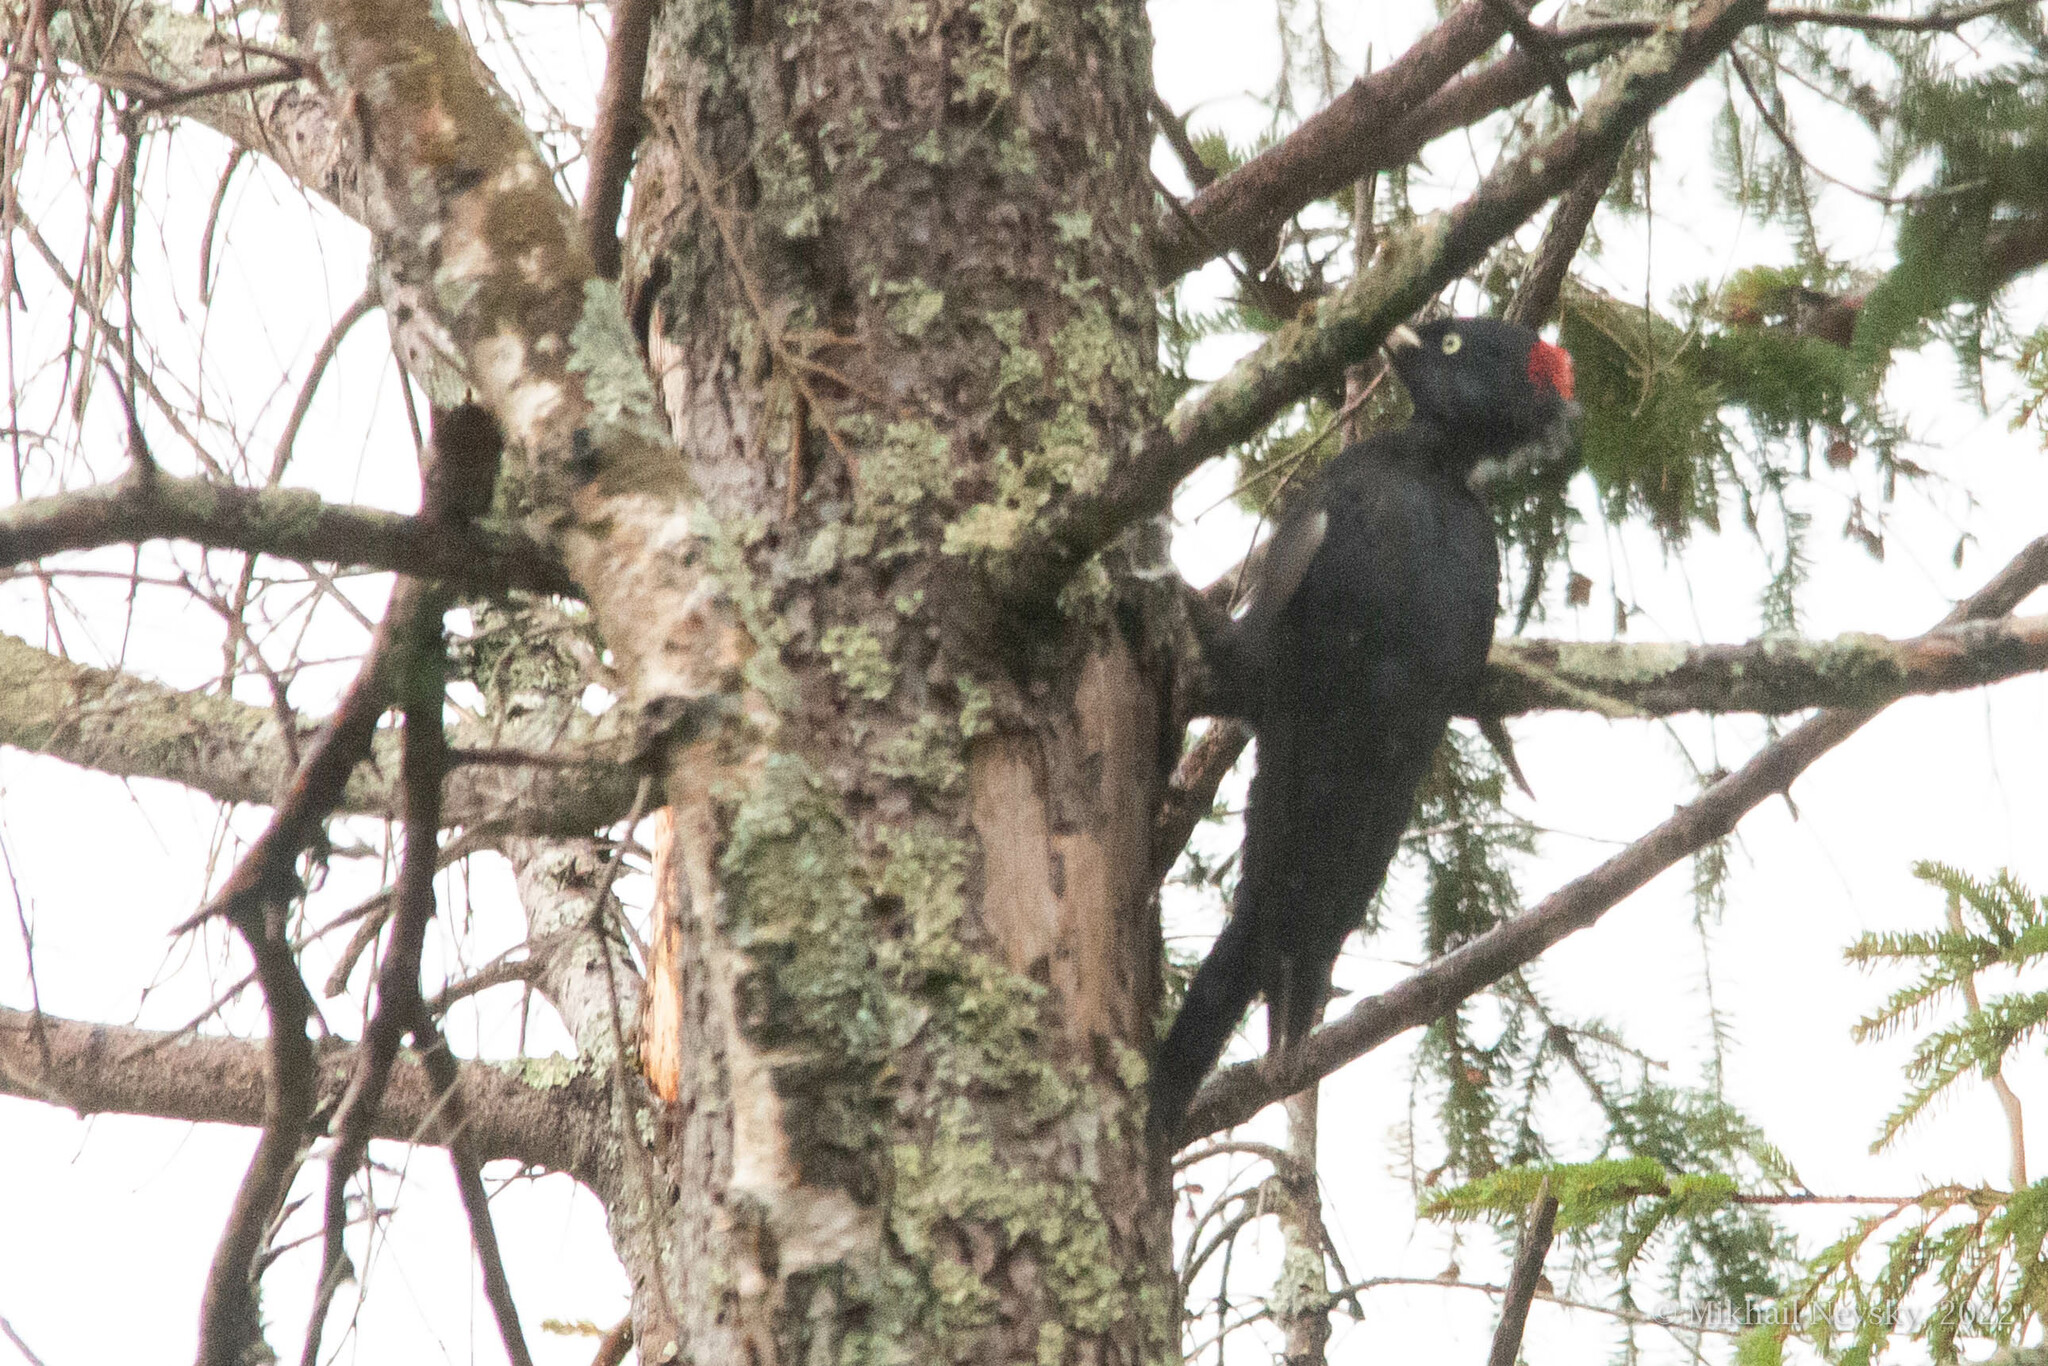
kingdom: Animalia
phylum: Chordata
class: Aves
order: Piciformes
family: Picidae
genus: Dryocopus
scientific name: Dryocopus martius
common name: Black woodpecker
